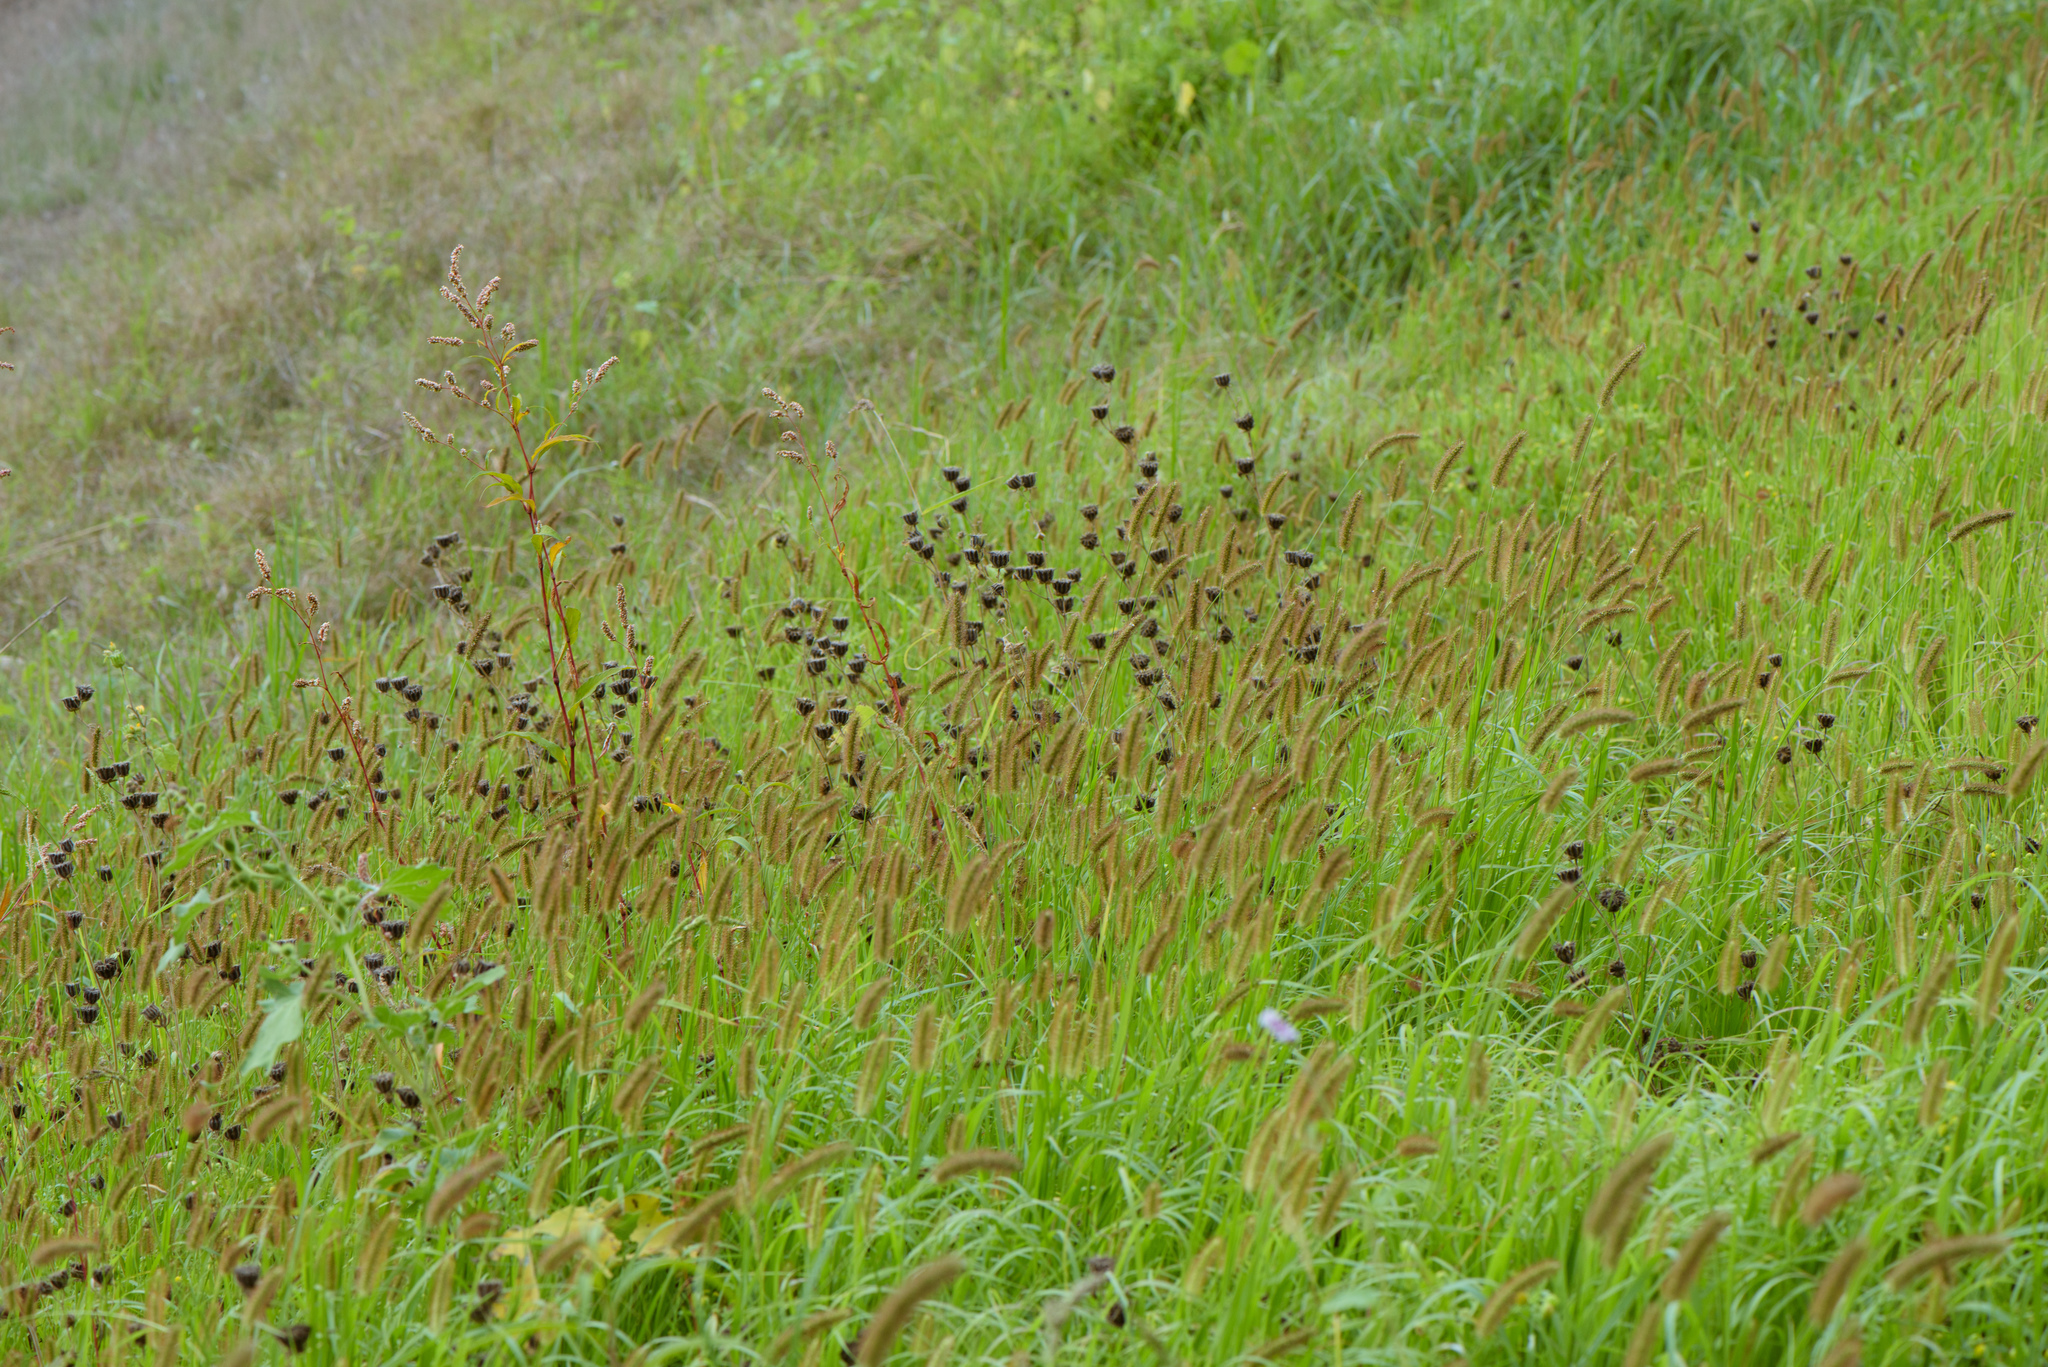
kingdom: Plantae
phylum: Tracheophyta
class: Magnoliopsida
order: Malvales
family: Malvaceae
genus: Abutilon
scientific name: Abutilon theophrasti
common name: Velvetleaf
